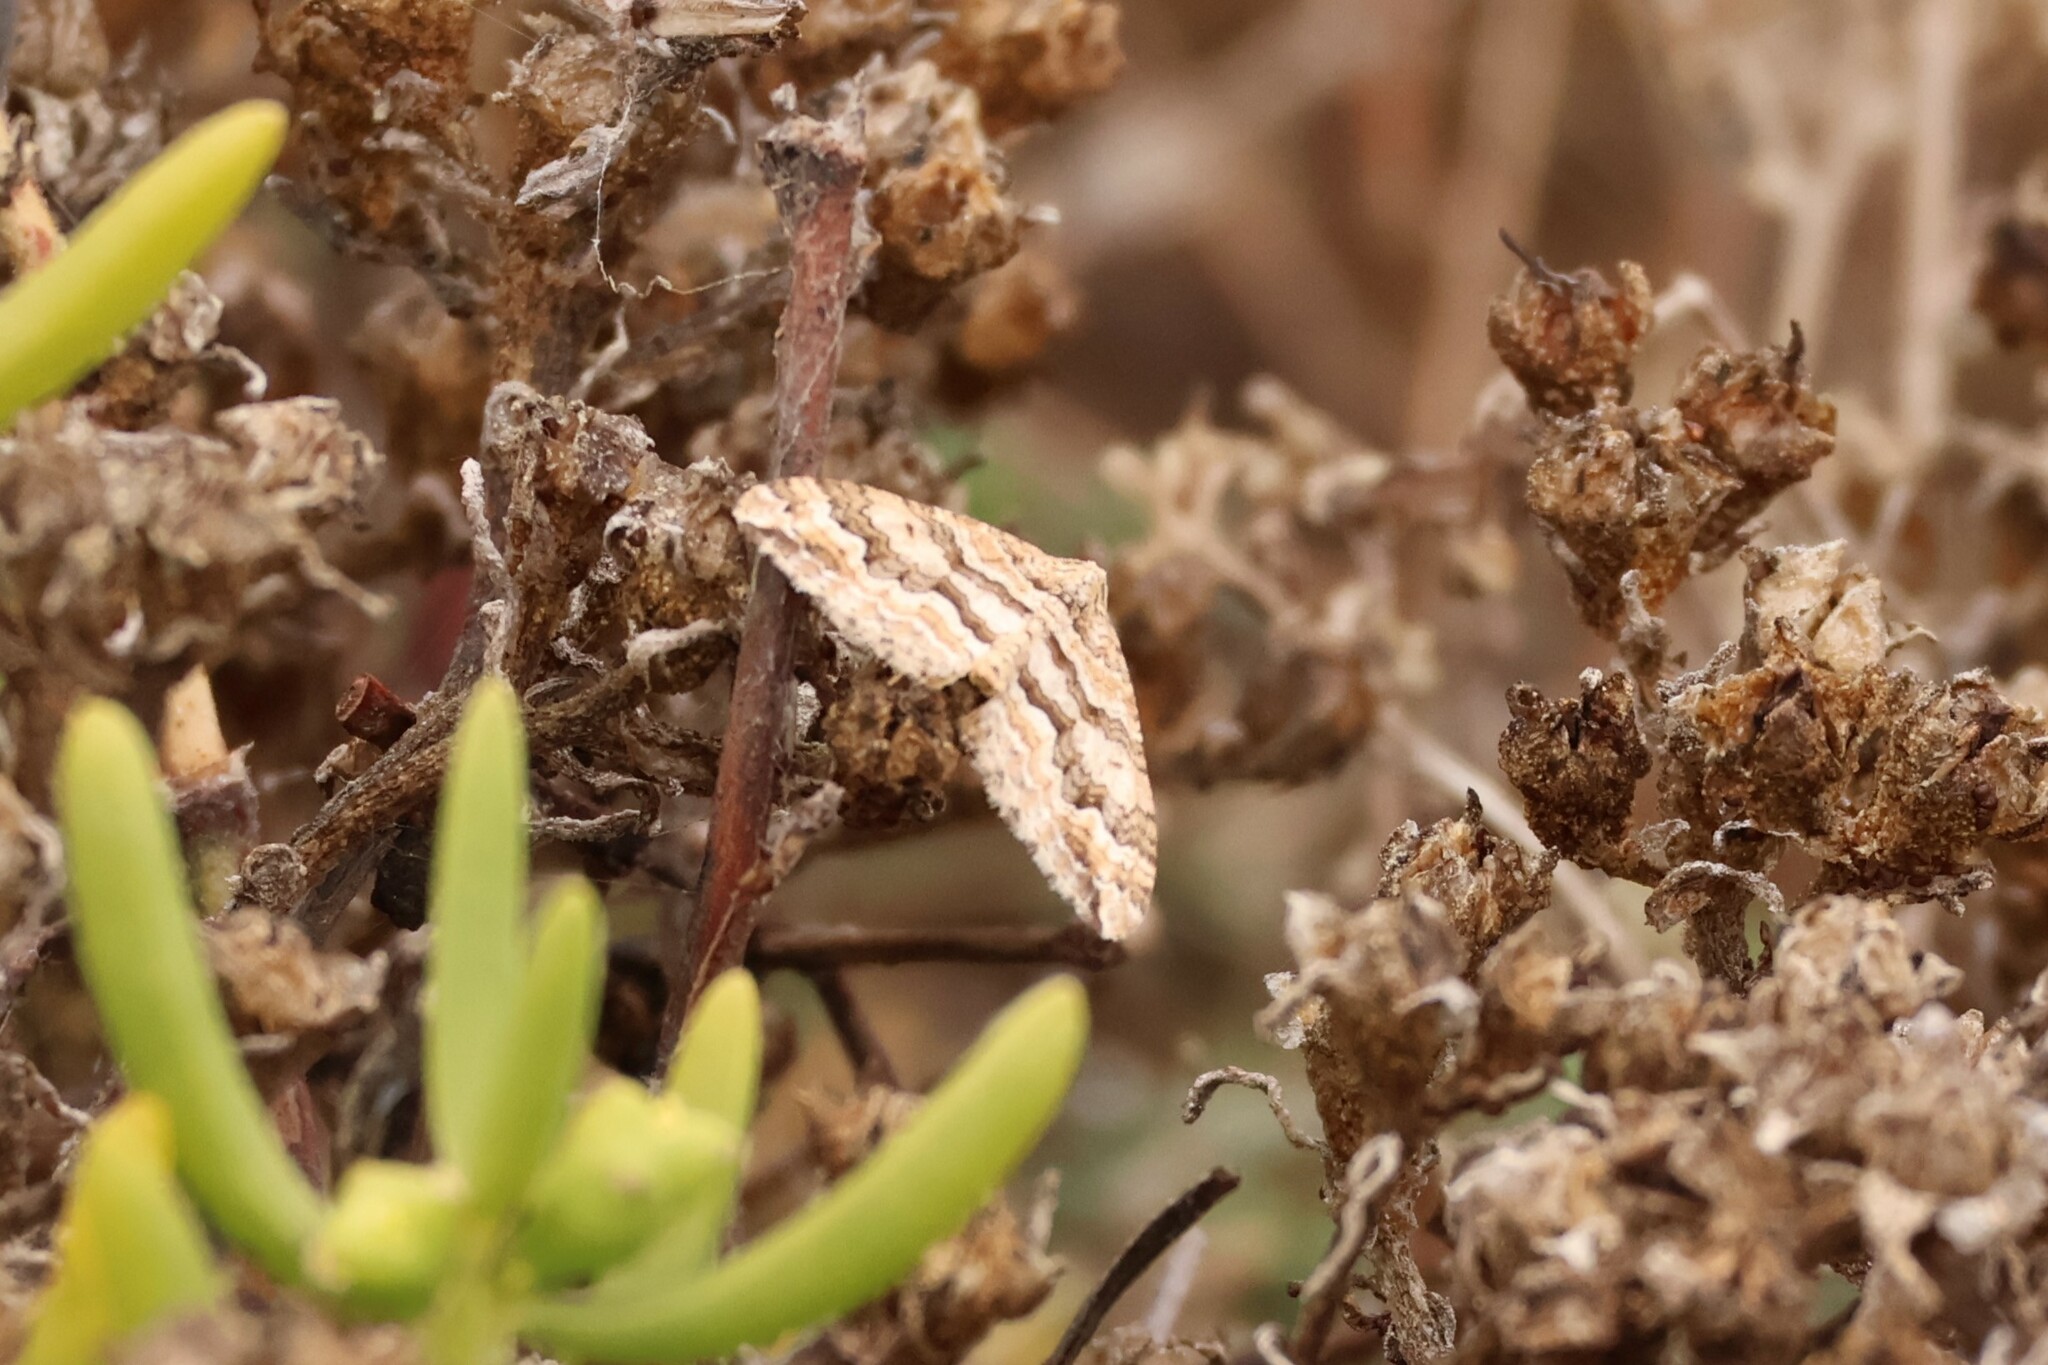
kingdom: Animalia
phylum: Arthropoda
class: Insecta
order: Lepidoptera
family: Geometridae
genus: Perizoma
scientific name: Perizoma epictata
